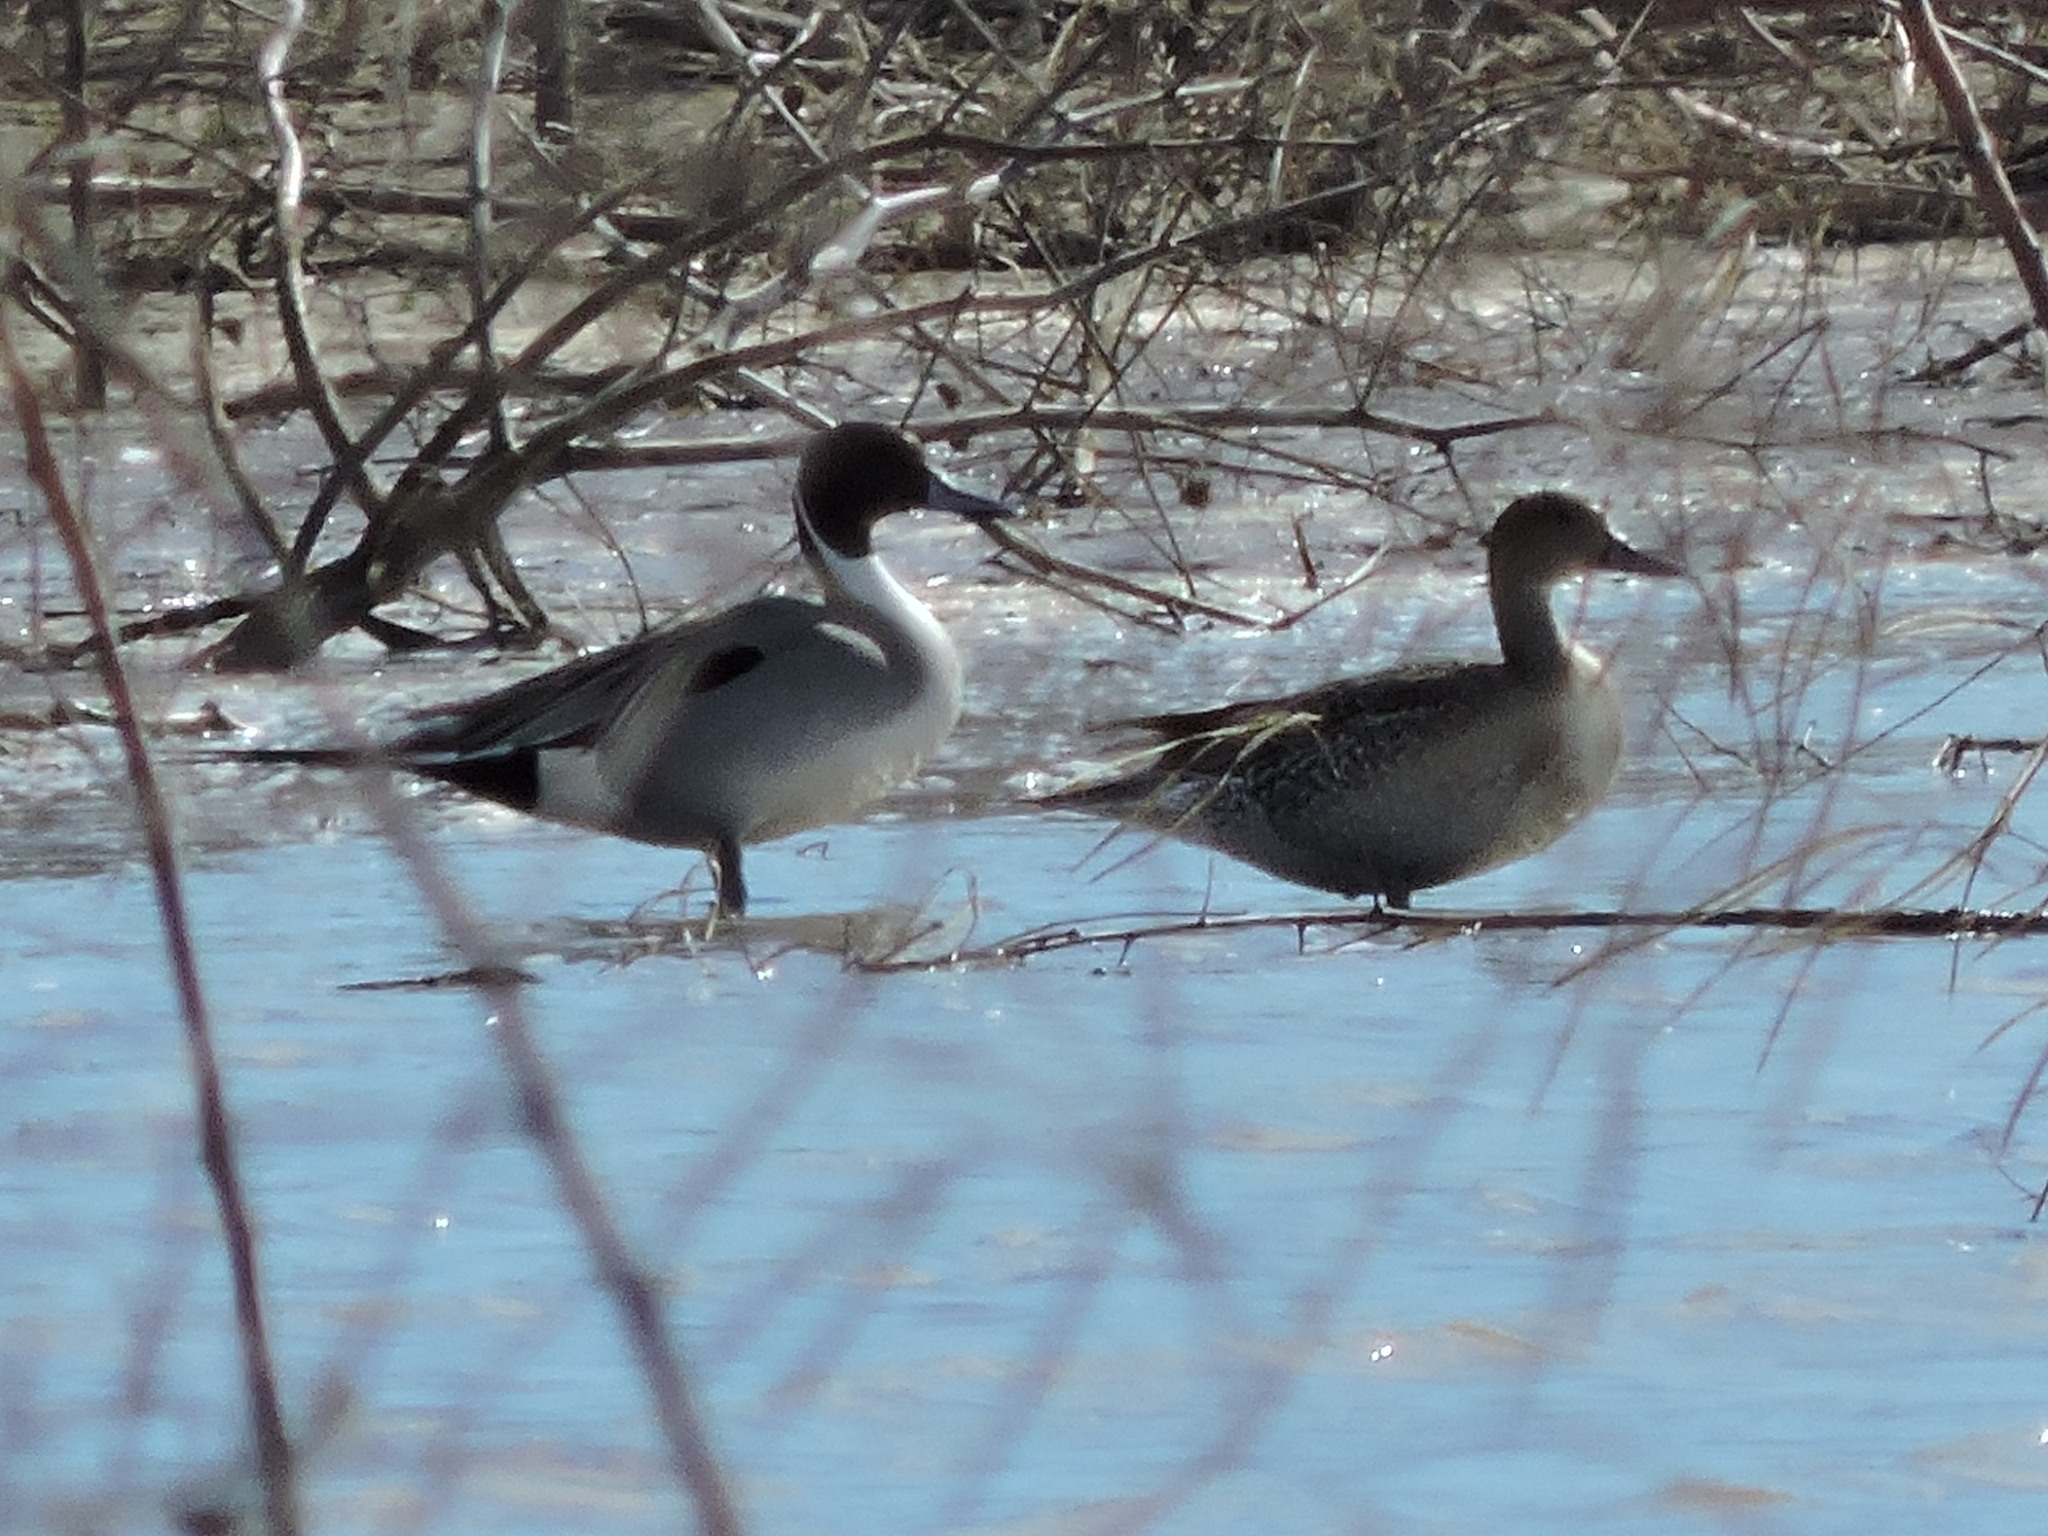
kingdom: Animalia
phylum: Chordata
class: Aves
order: Anseriformes
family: Anatidae
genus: Anas
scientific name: Anas acuta
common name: Northern pintail
